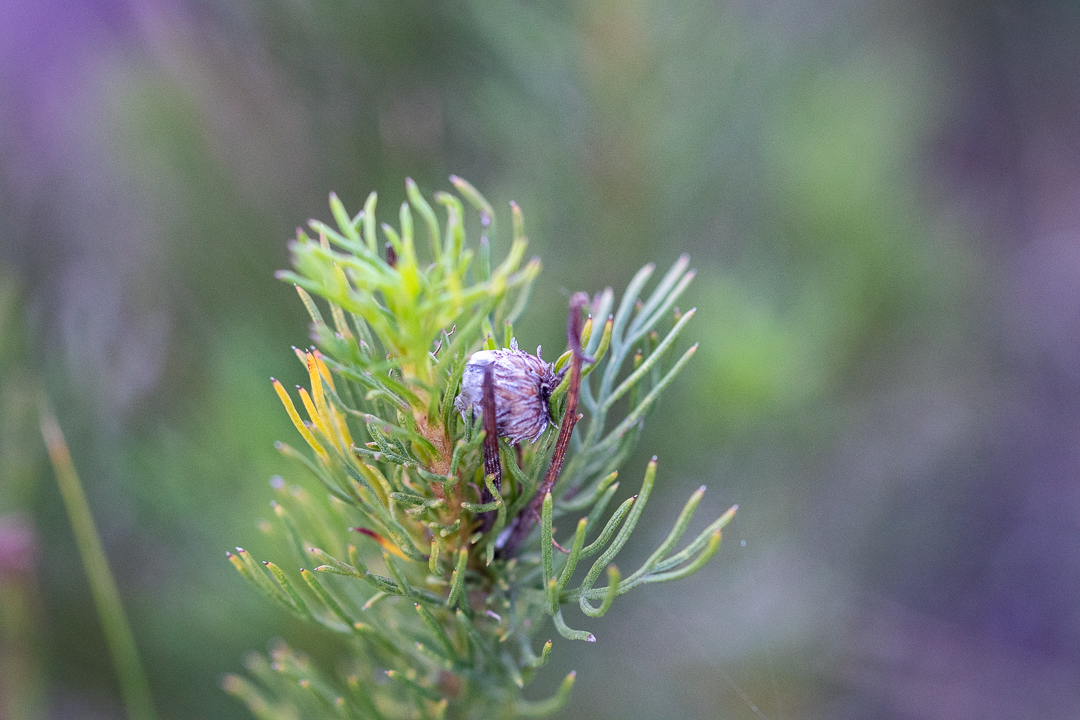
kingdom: Plantae
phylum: Tracheophyta
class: Magnoliopsida
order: Asterales
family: Asteraceae
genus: Ursinia
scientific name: Ursinia paleacea
